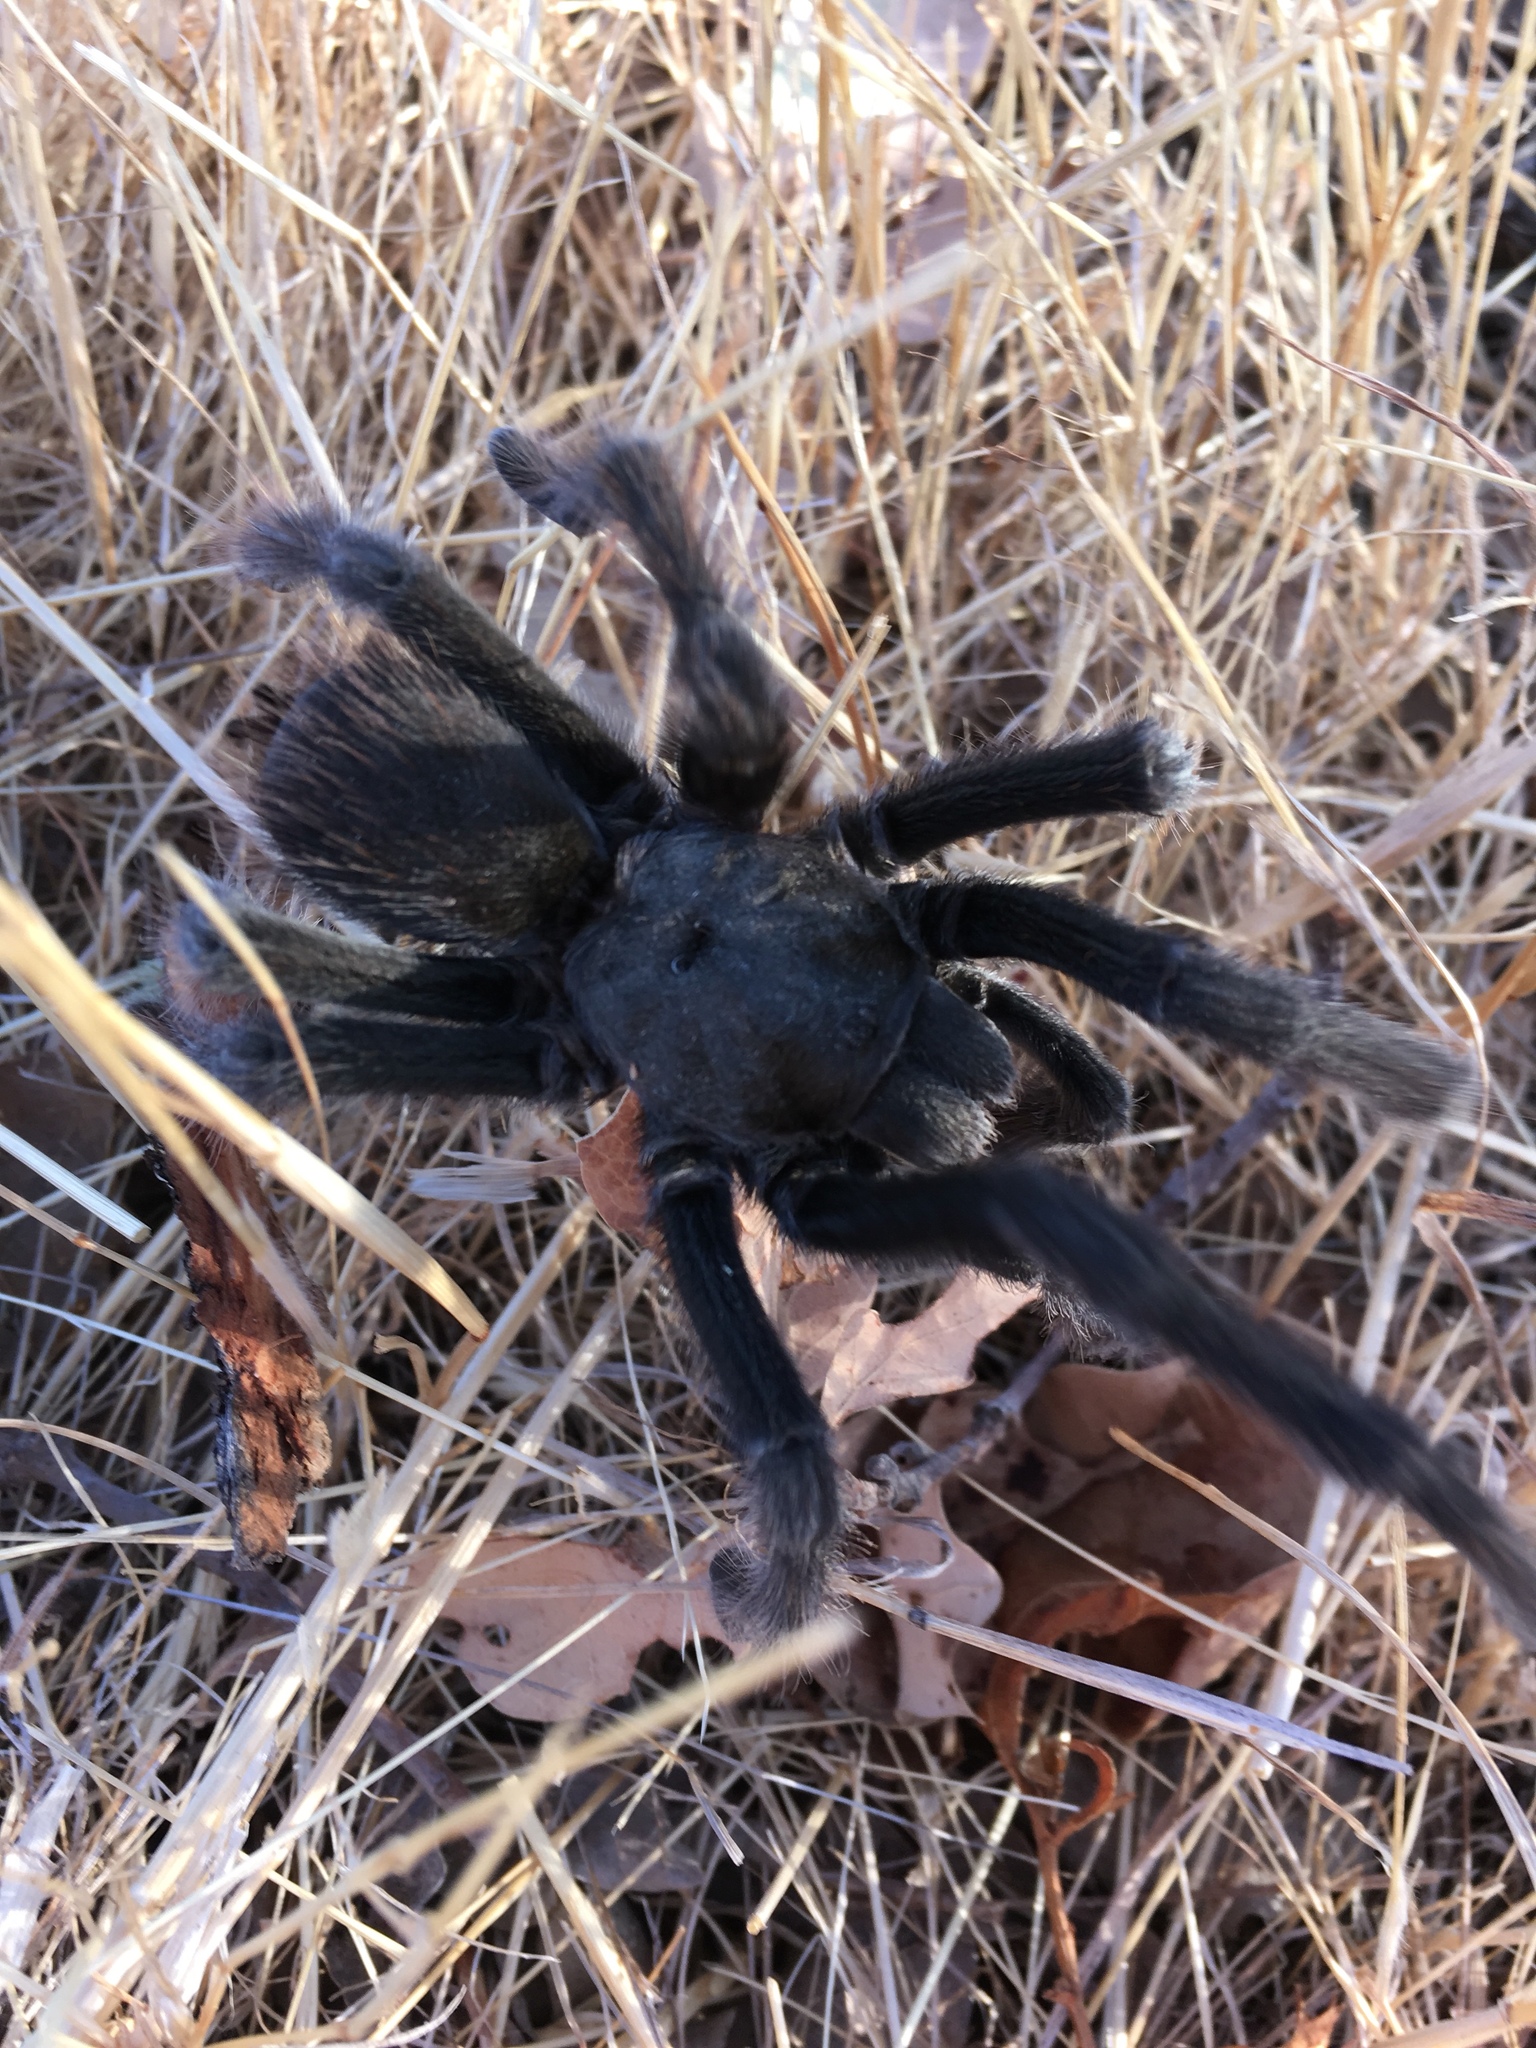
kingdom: Animalia
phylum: Arthropoda
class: Arachnida
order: Araneae
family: Theraphosidae
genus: Aphonopelma
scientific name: Aphonopelma iodius
